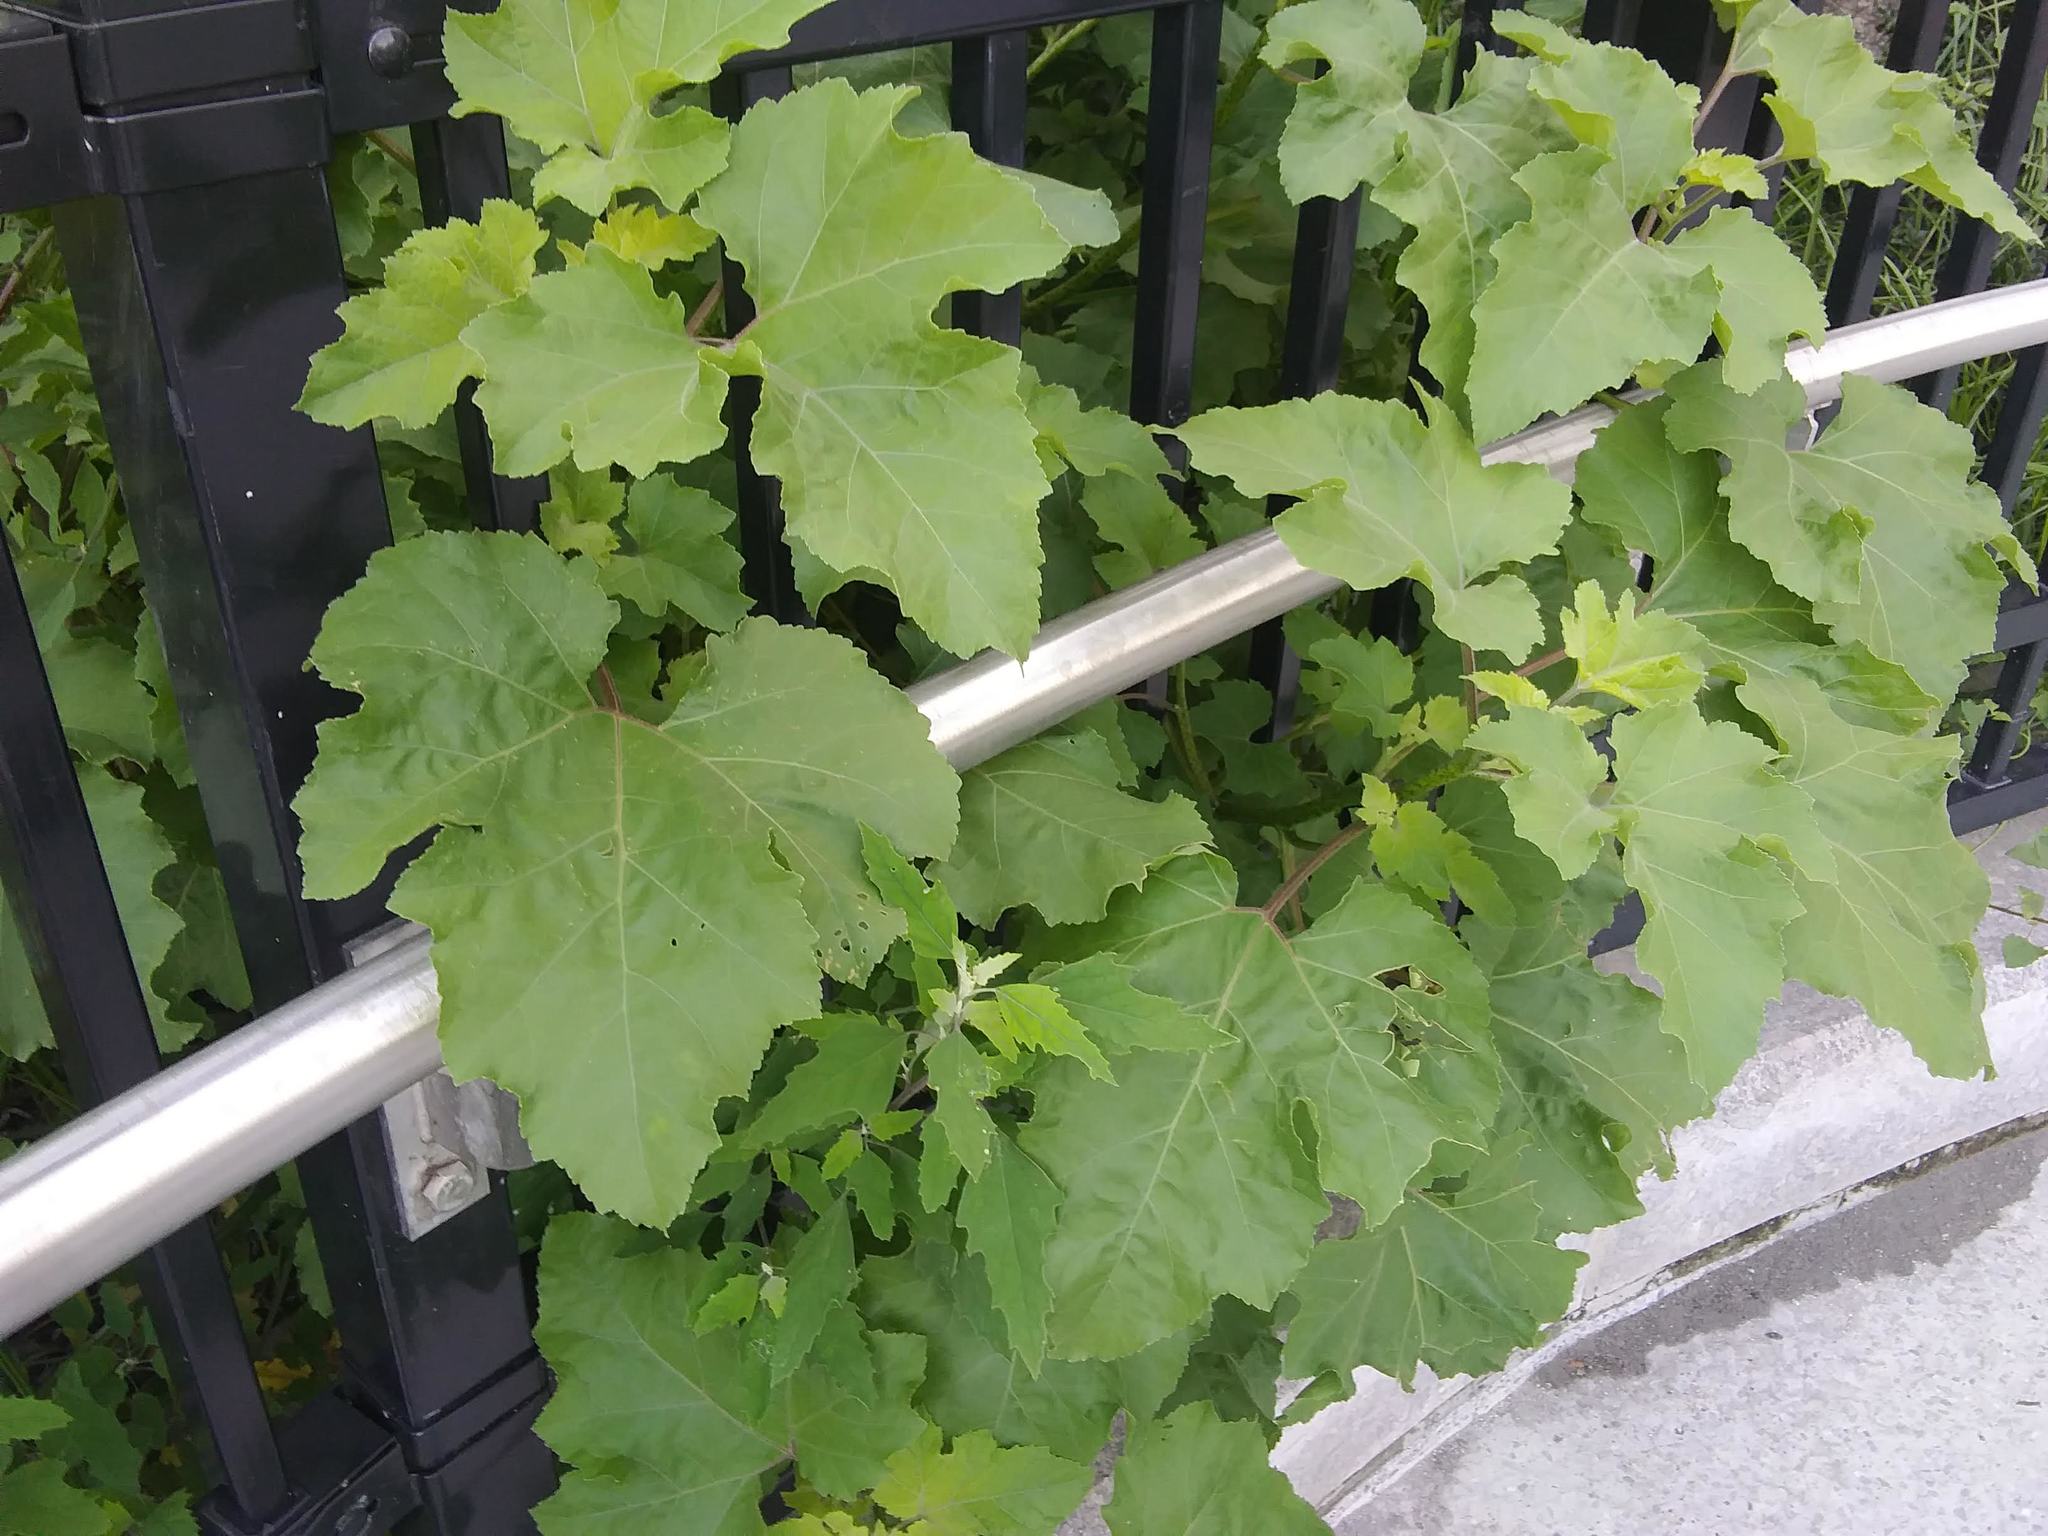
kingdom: Plantae
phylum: Tracheophyta
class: Magnoliopsida
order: Asterales
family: Asteraceae
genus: Xanthium
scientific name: Xanthium strumarium
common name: Rough cocklebur
